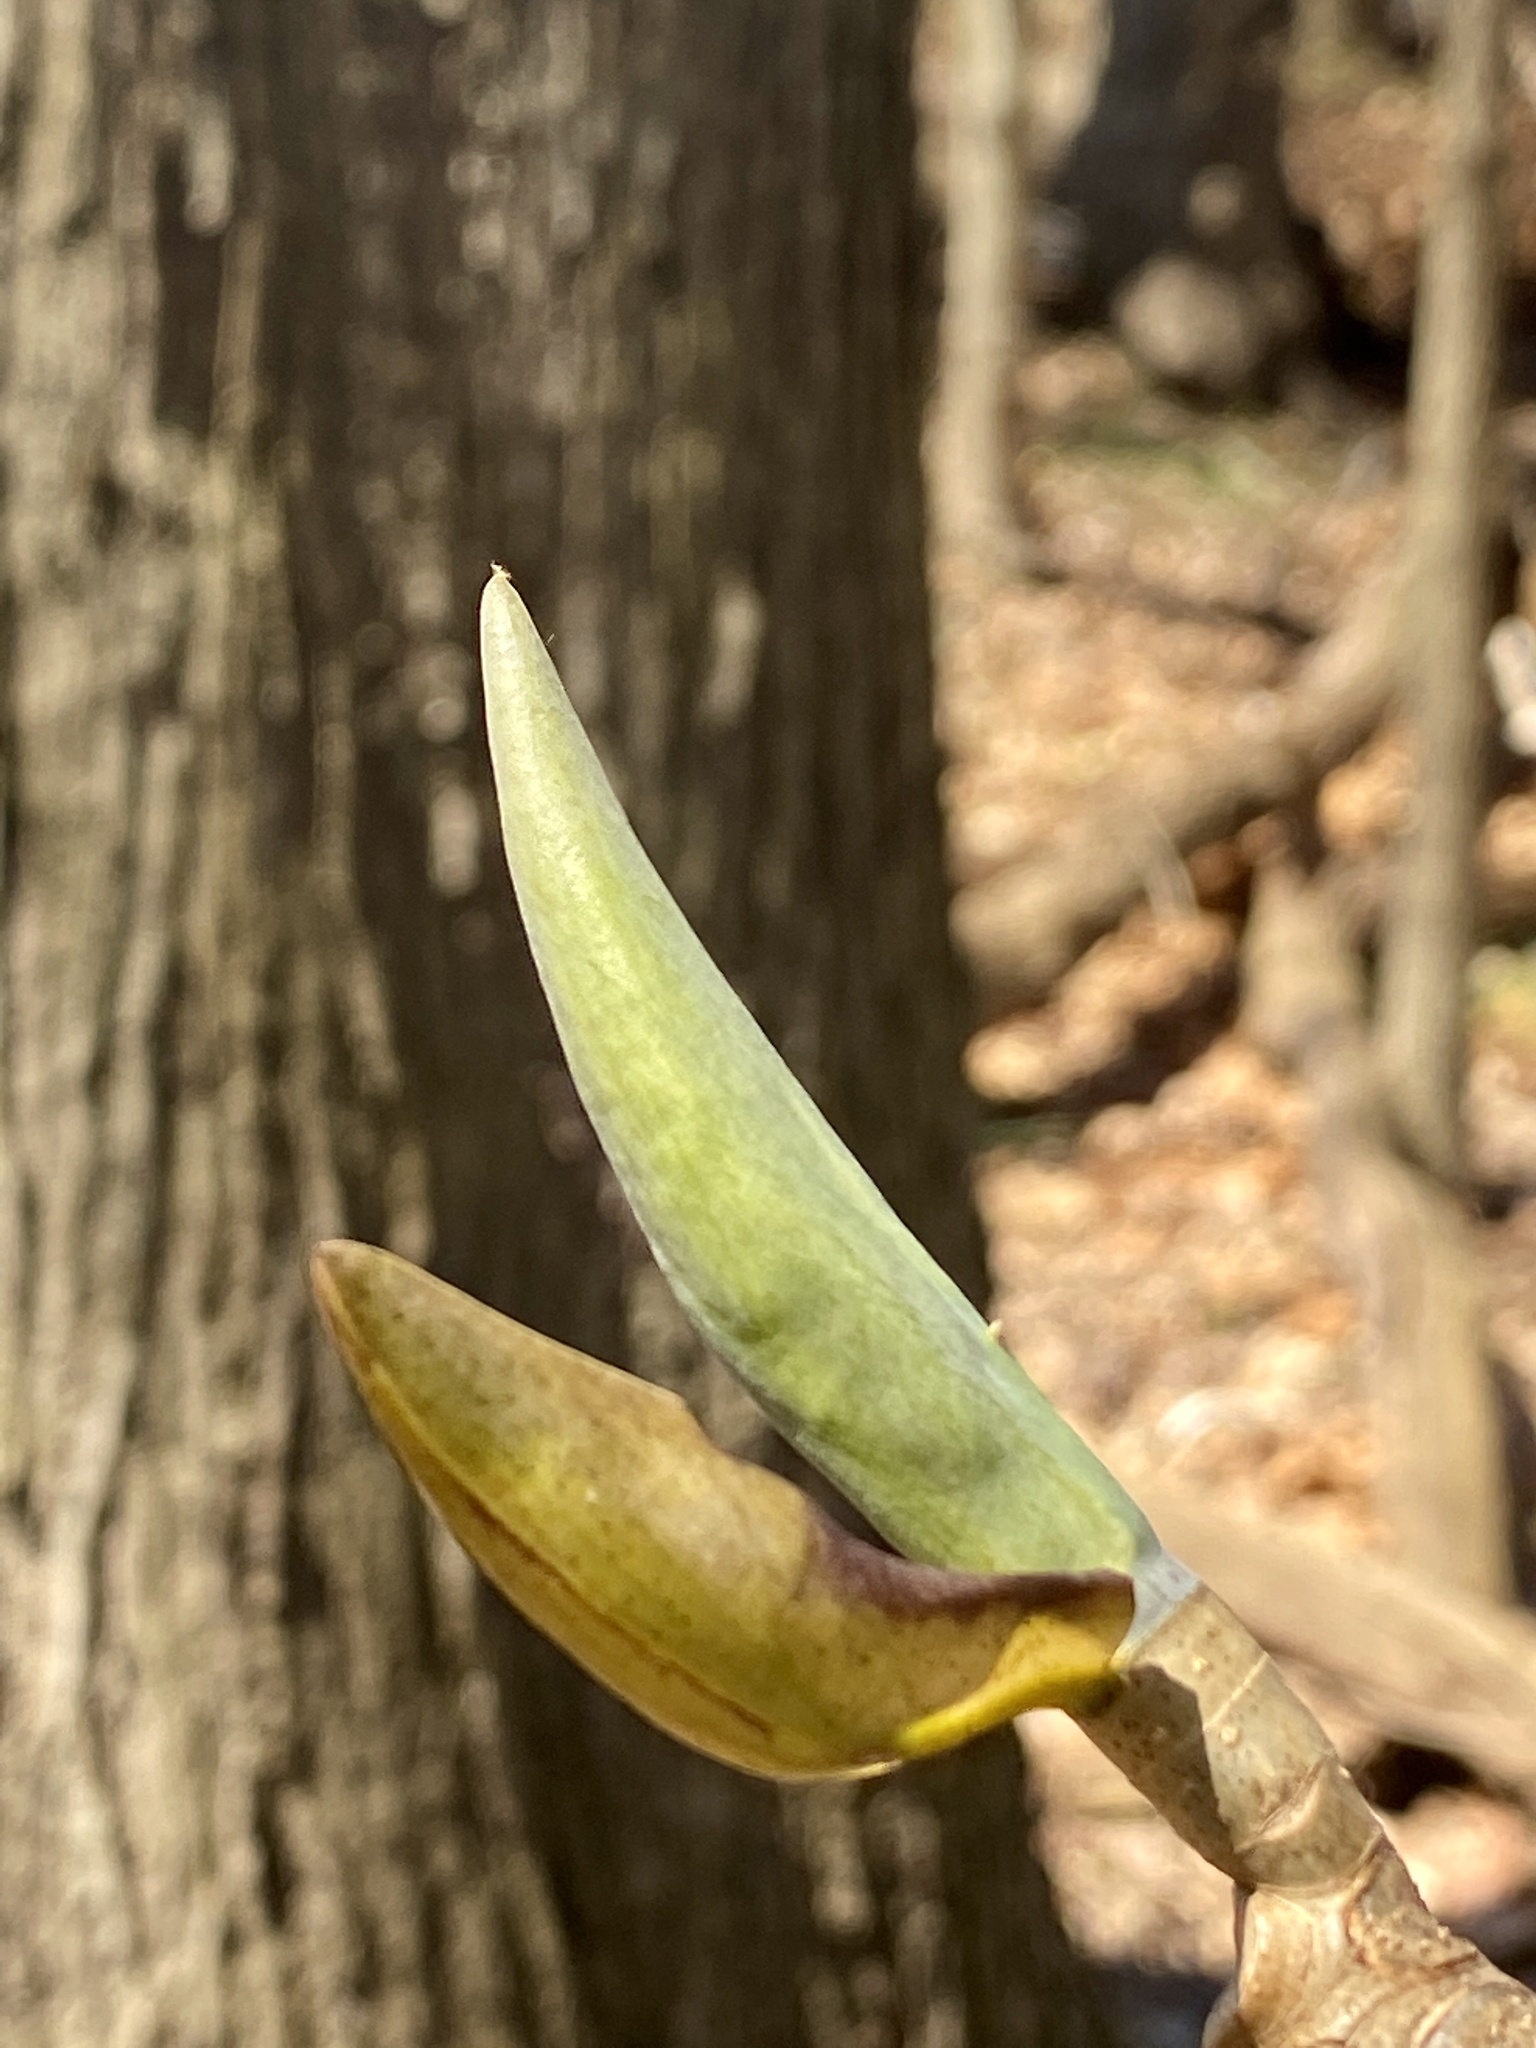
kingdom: Plantae
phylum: Tracheophyta
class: Magnoliopsida
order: Magnoliales
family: Magnoliaceae
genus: Magnolia
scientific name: Magnolia tripetala
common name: Umbrella magnolia
